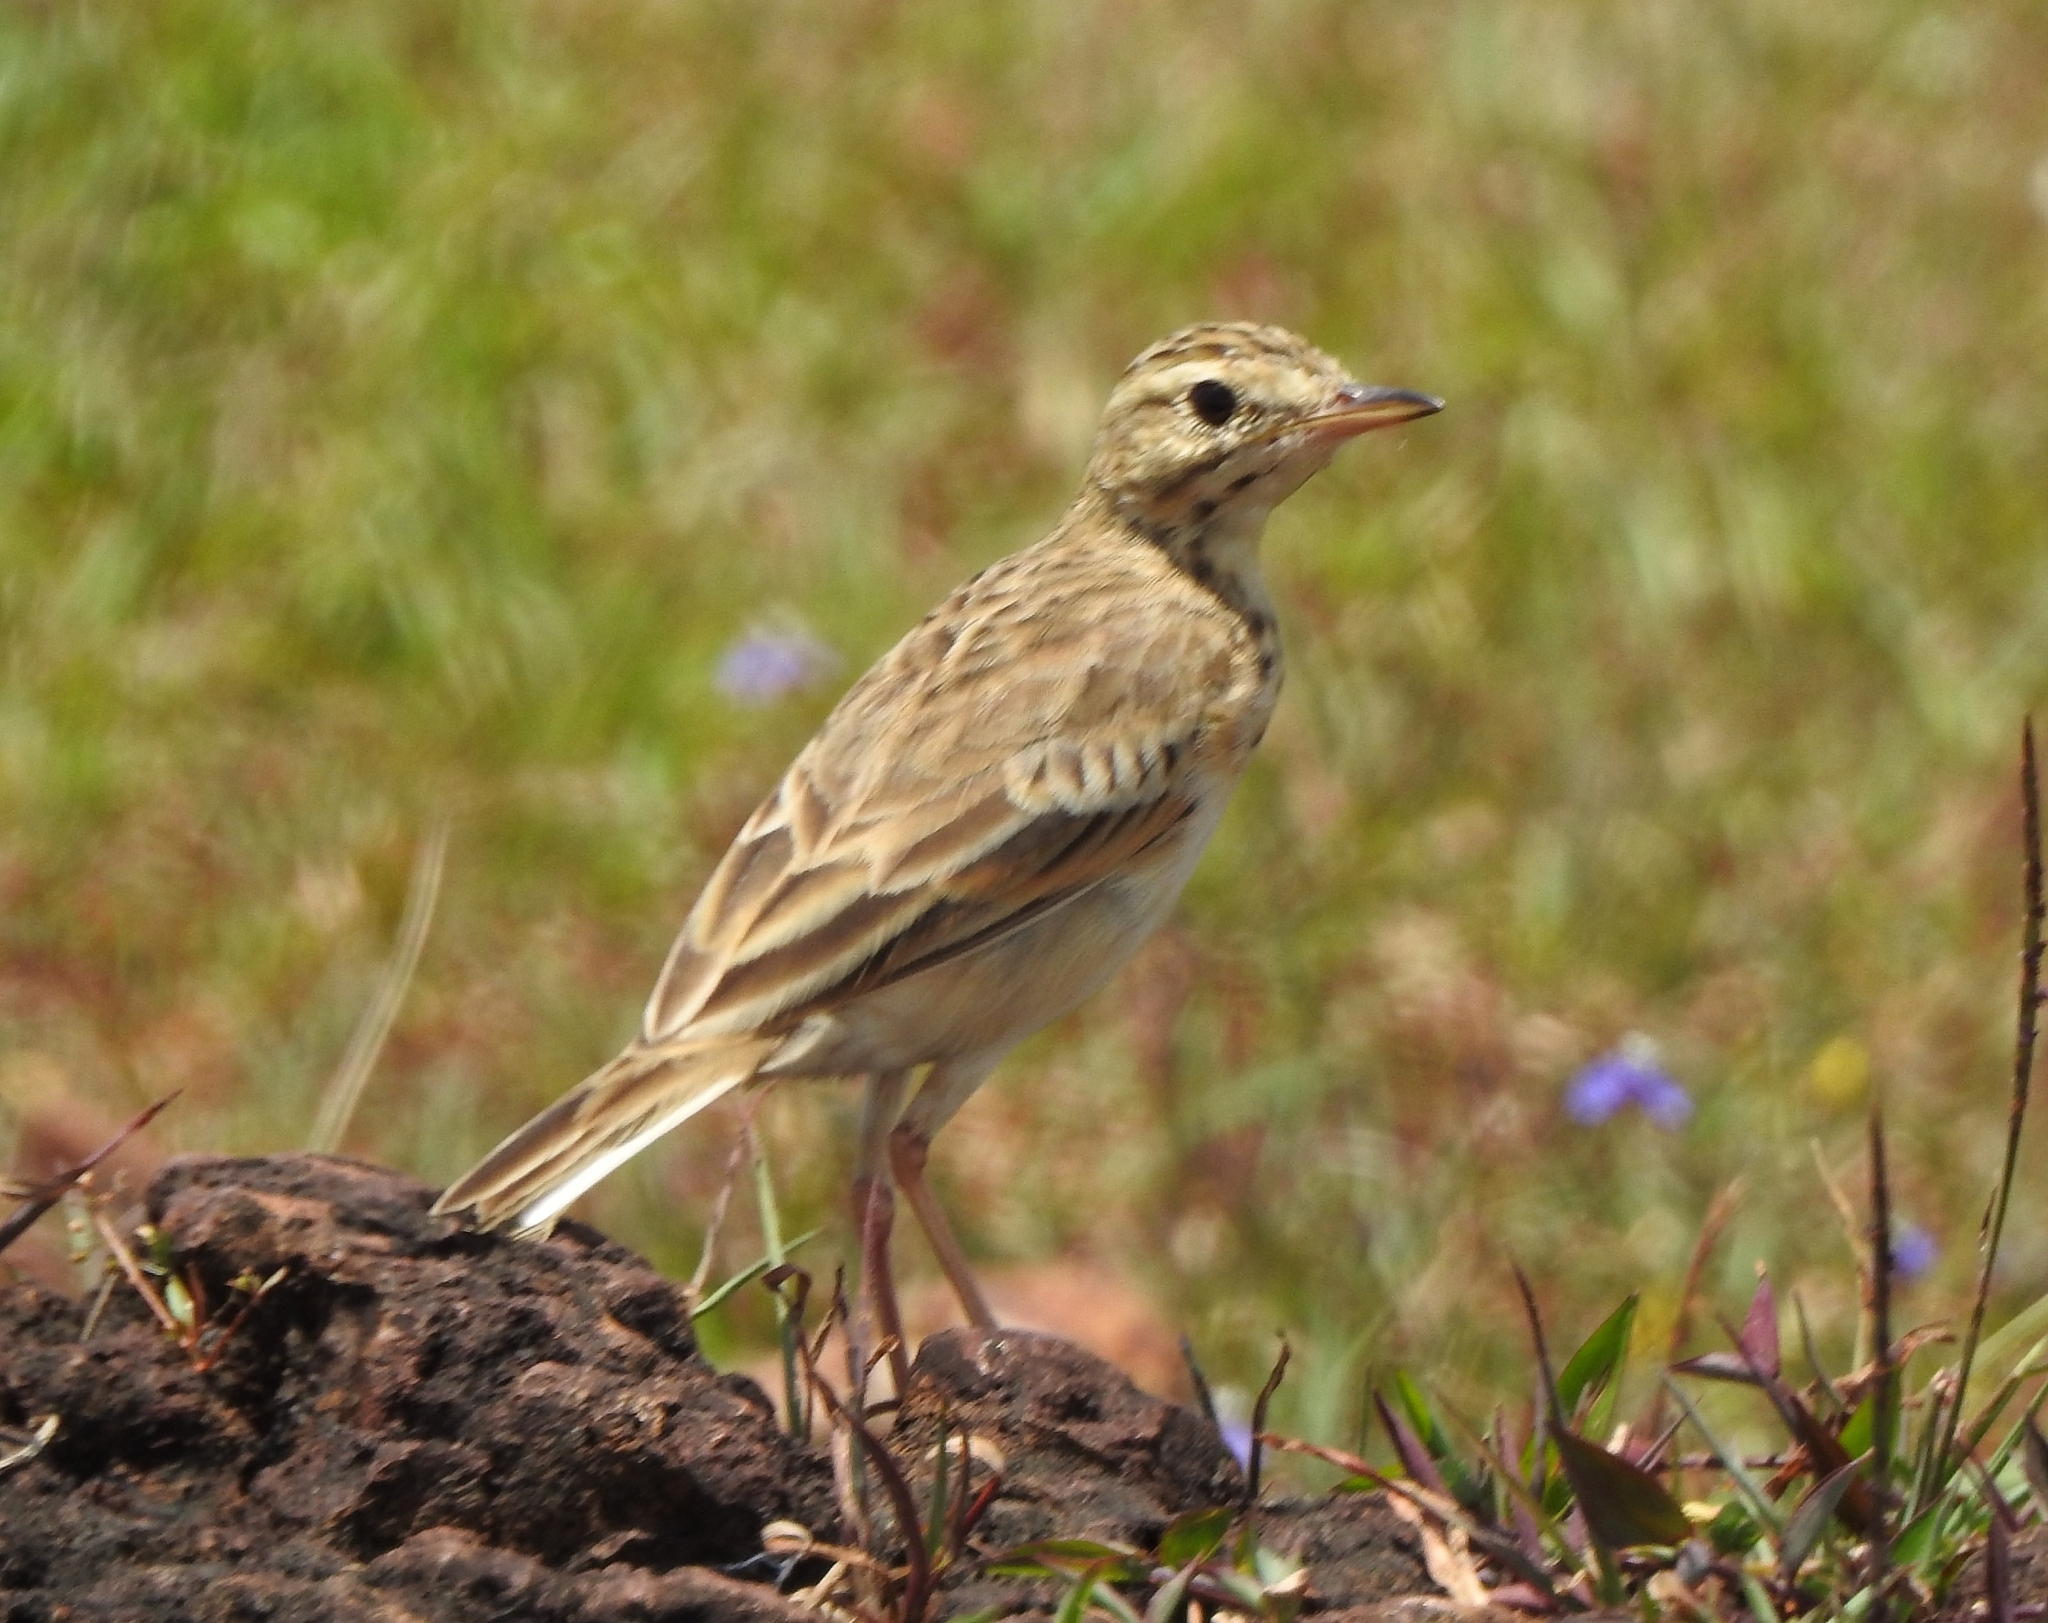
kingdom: Animalia
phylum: Chordata
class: Aves
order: Passeriformes
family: Motacillidae
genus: Anthus
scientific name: Anthus rufulus
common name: Paddyfield pipit
